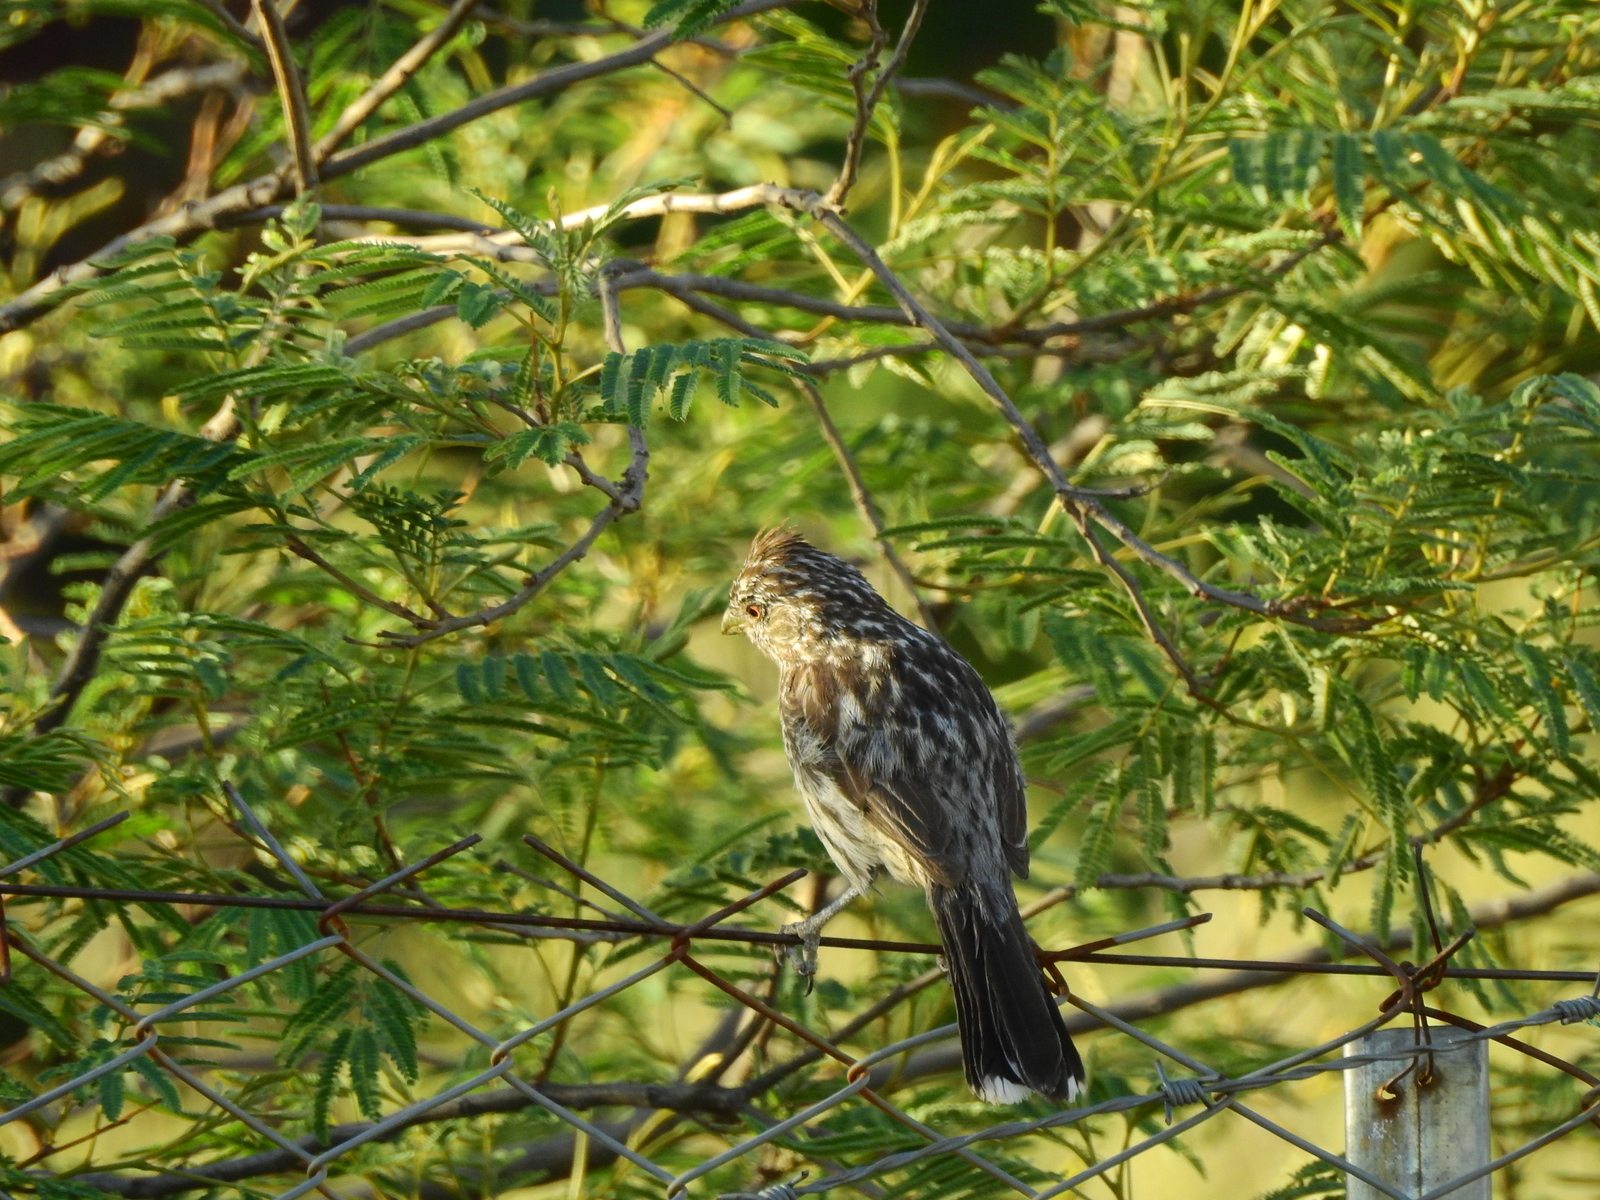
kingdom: Animalia
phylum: Chordata
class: Aves
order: Passeriformes
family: Cotingidae
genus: Phytotoma
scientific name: Phytotoma rutila
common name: White-tipped plantcutter
